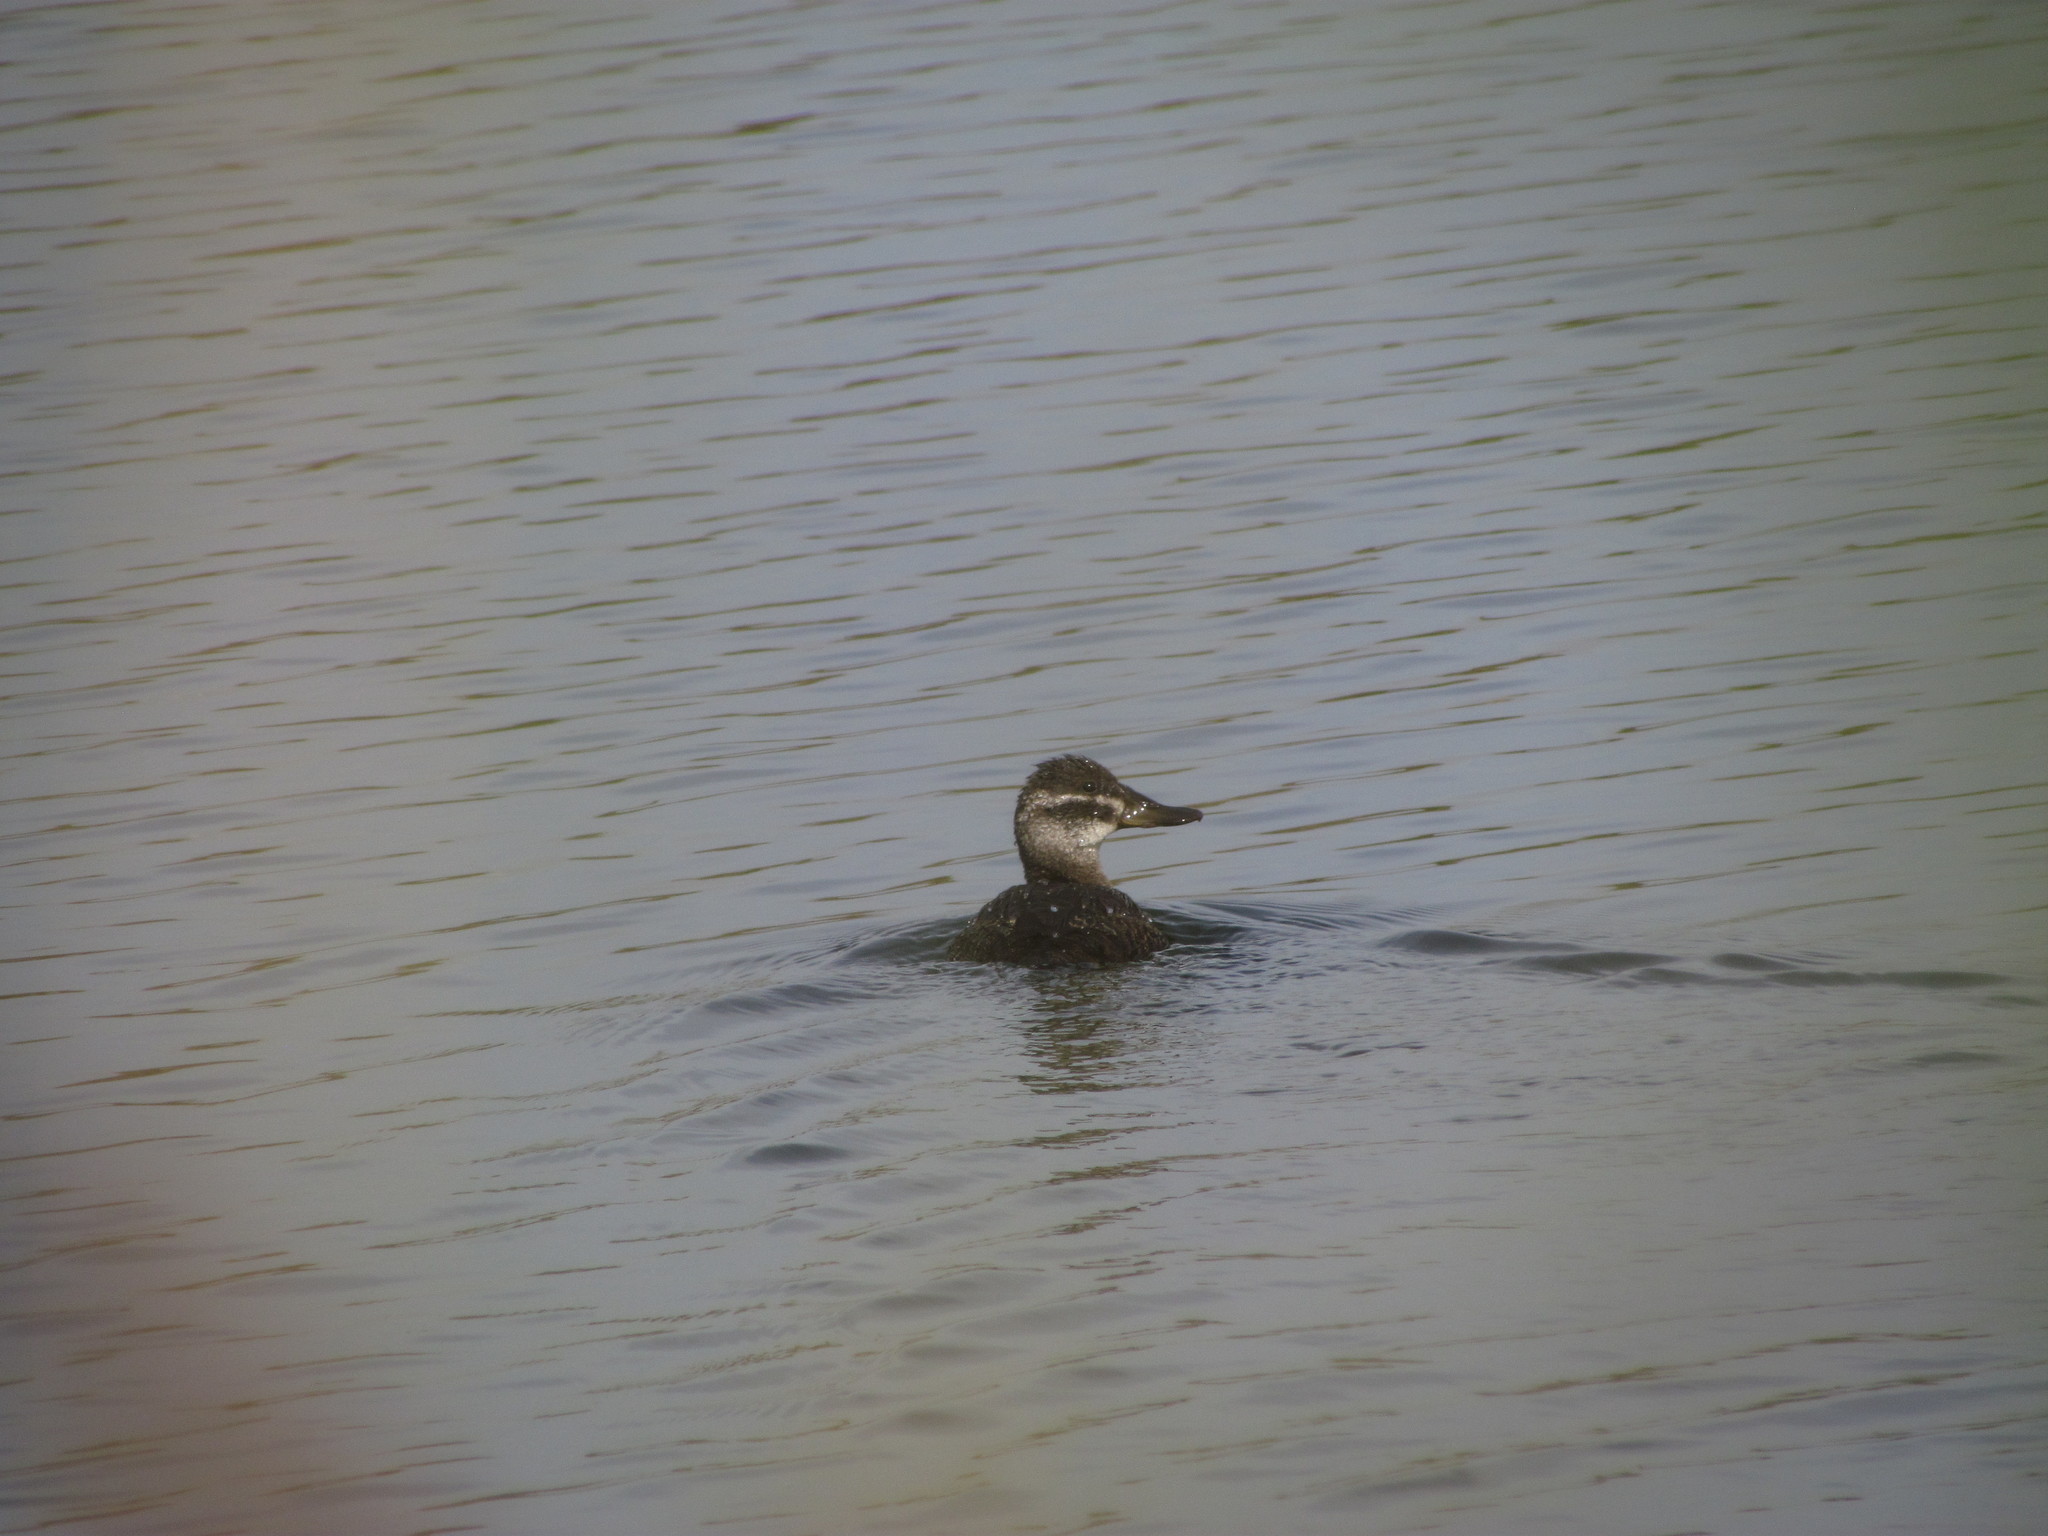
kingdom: Animalia
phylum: Chordata
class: Aves
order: Anseriformes
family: Anatidae
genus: Oxyura
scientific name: Oxyura vittata
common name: Lake duck
